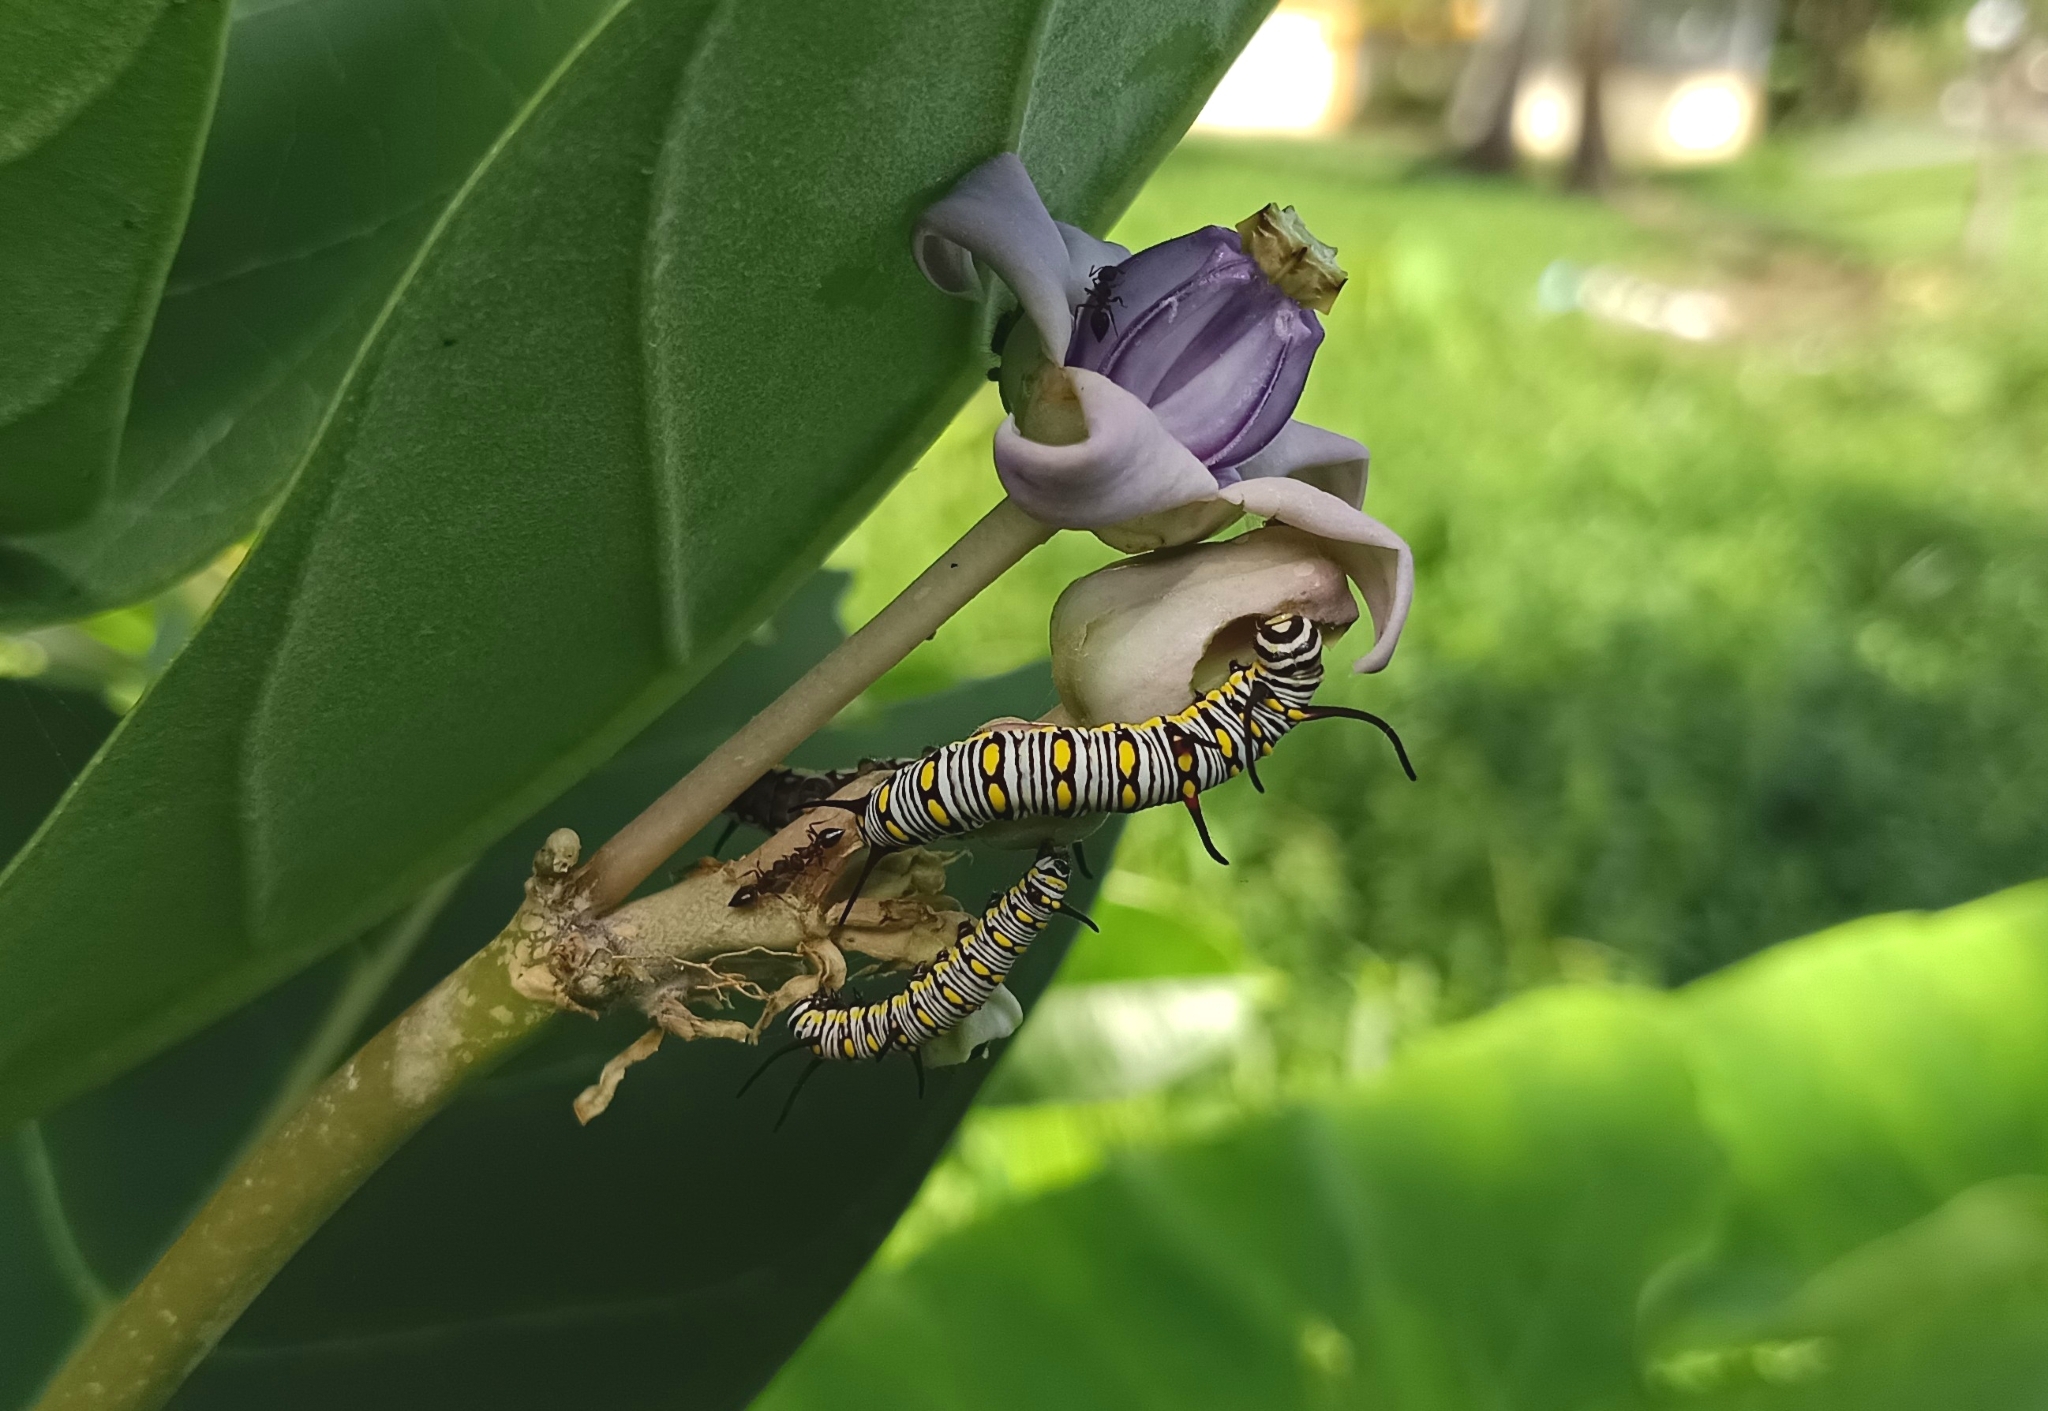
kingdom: Animalia
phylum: Arthropoda
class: Insecta
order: Lepidoptera
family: Nymphalidae
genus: Danaus
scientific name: Danaus chrysippus
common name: Plain tiger
